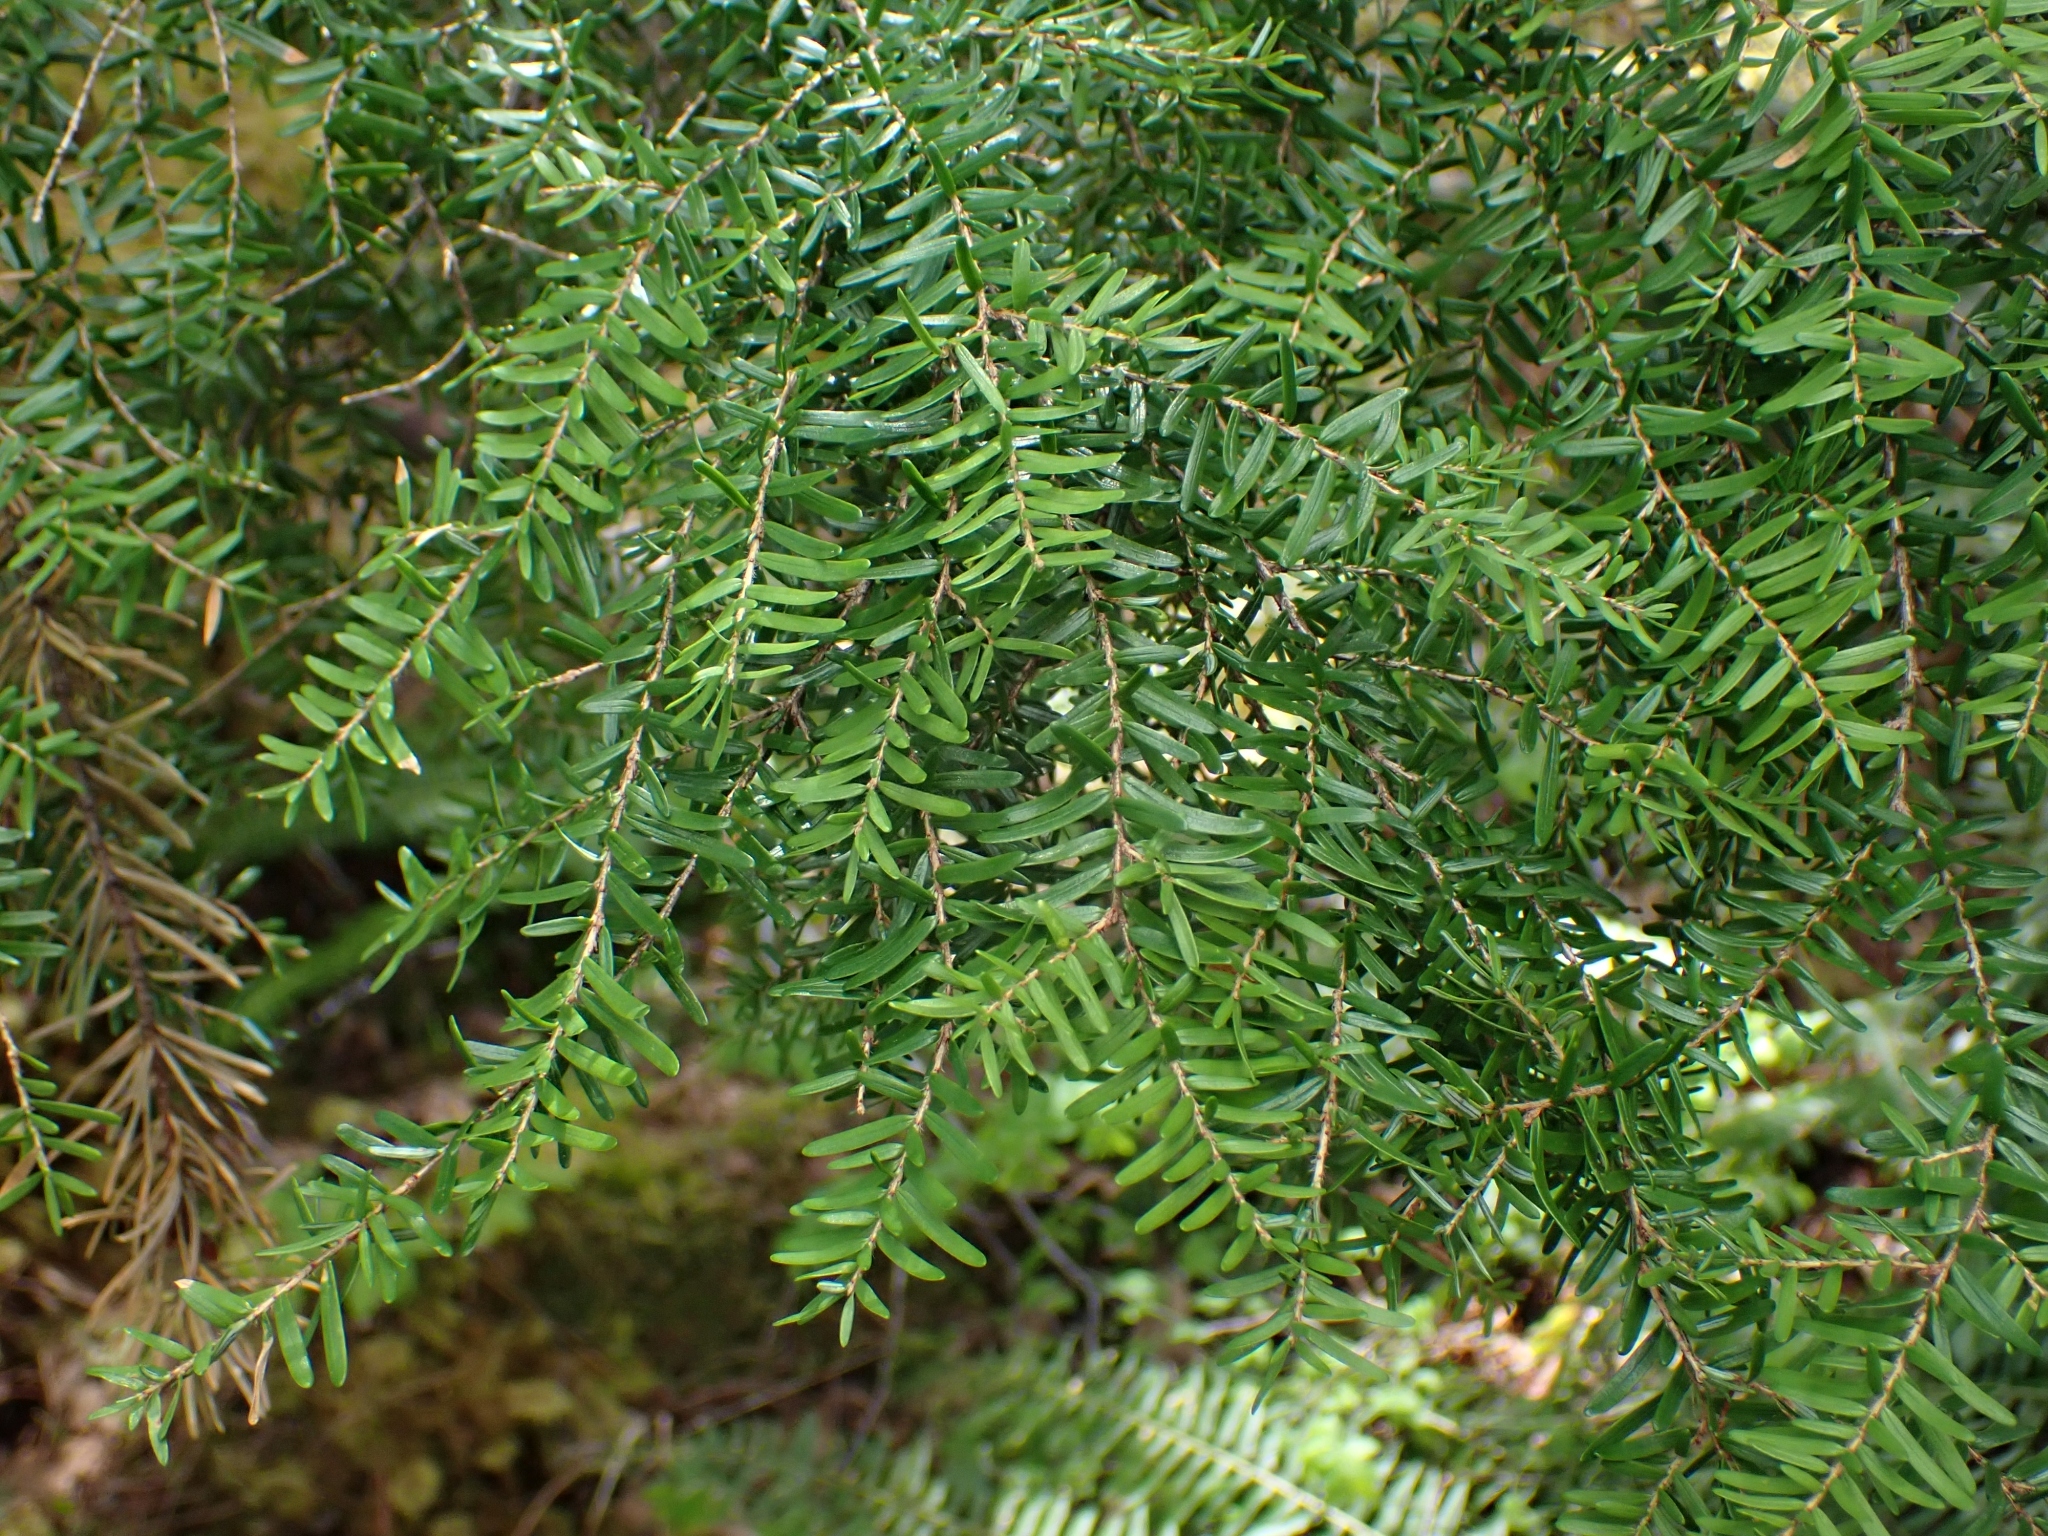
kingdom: Plantae
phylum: Tracheophyta
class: Pinopsida
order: Pinales
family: Pinaceae
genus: Tsuga
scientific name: Tsuga heterophylla
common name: Western hemlock
